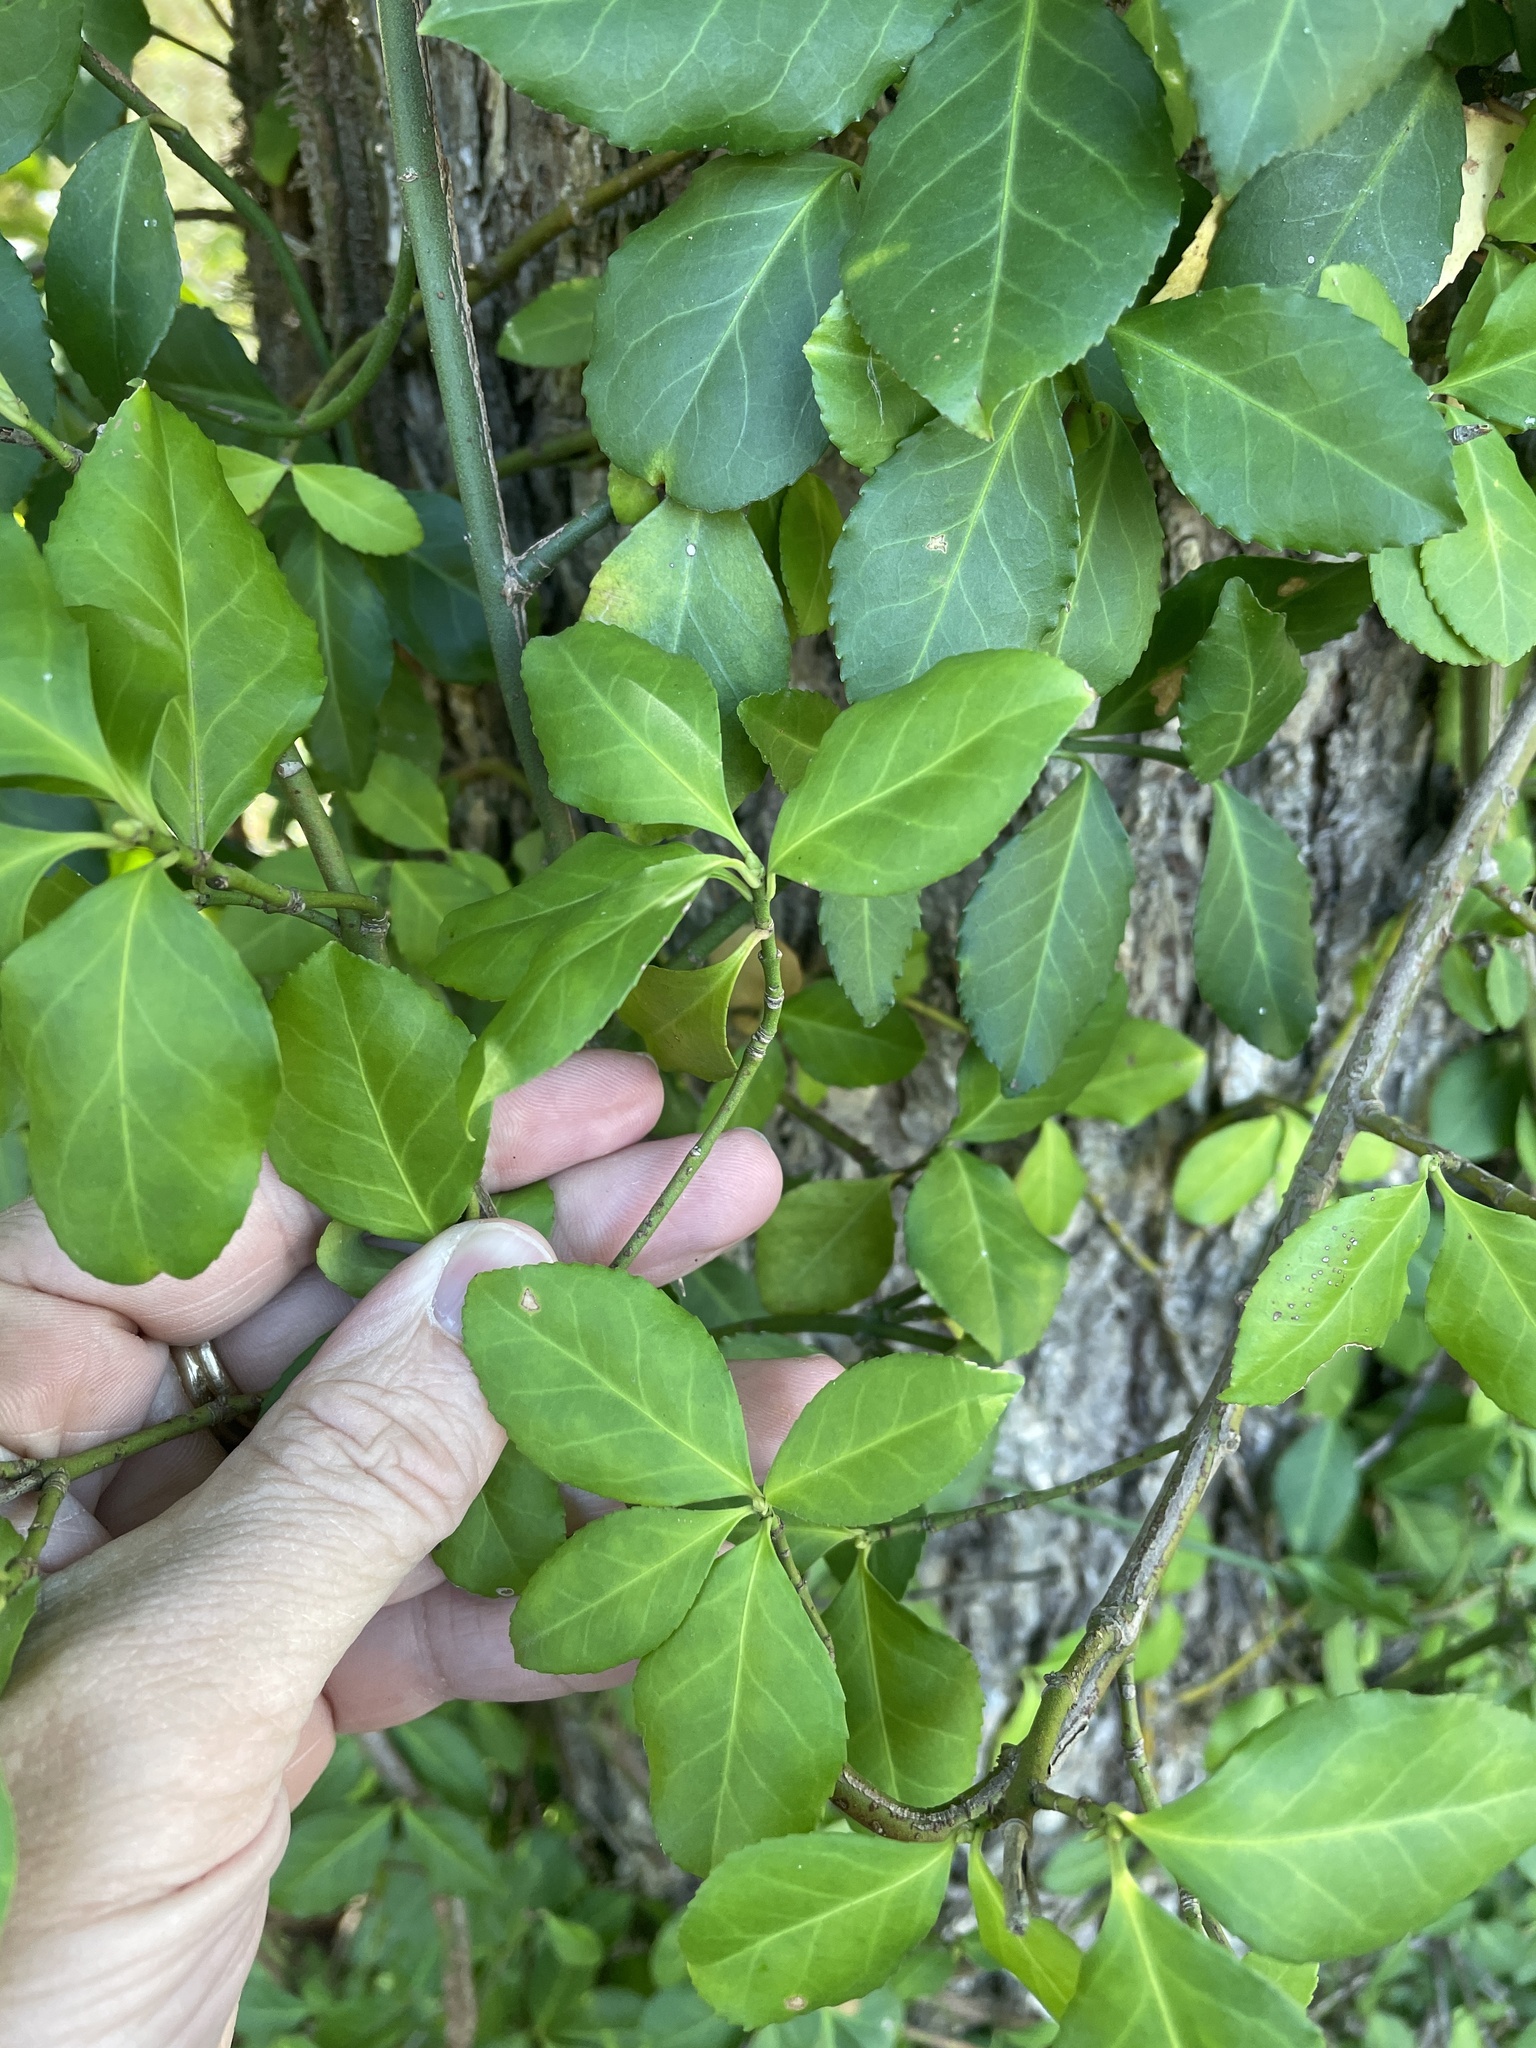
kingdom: Plantae
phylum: Tracheophyta
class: Magnoliopsida
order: Celastrales
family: Celastraceae
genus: Euonymus
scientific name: Euonymus fortunei
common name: Climbing euonymus
